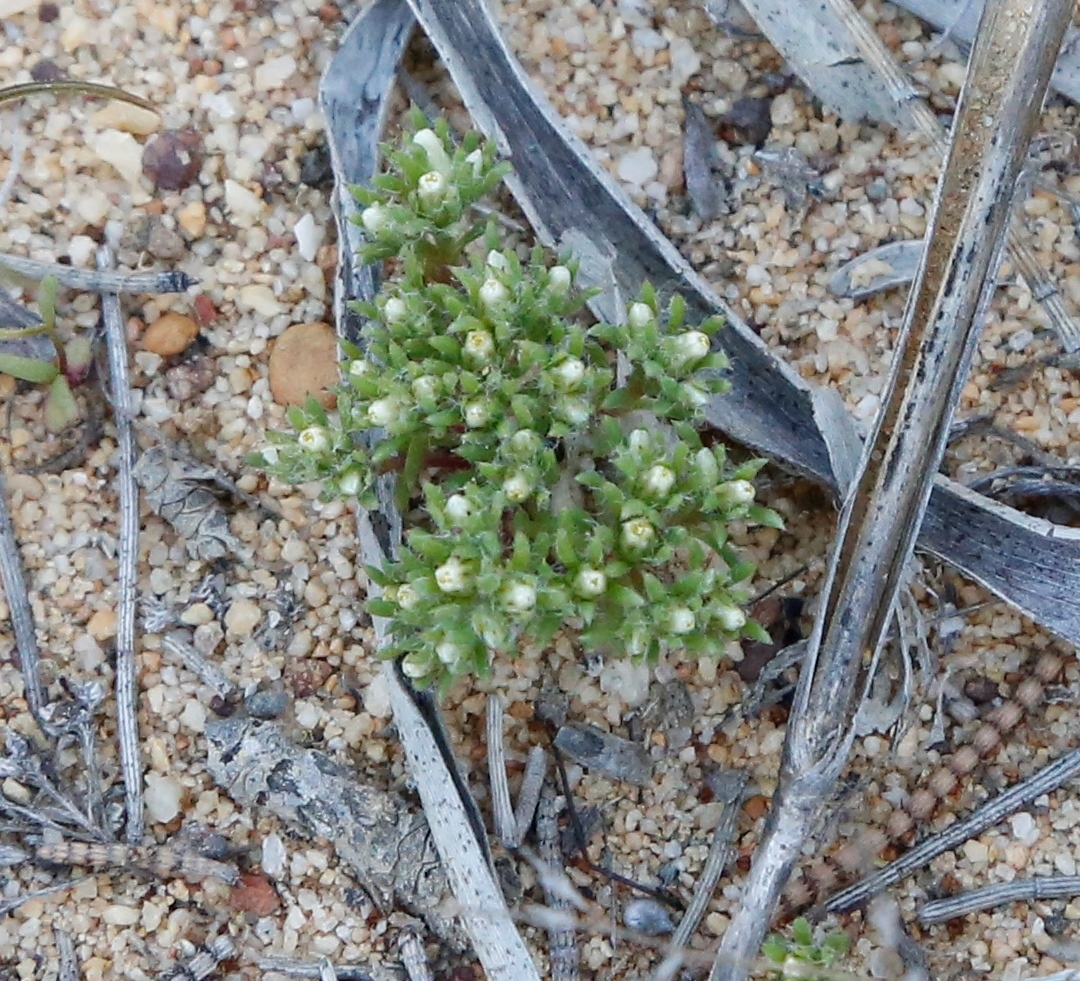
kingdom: Plantae
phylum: Tracheophyta
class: Magnoliopsida
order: Asterales
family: Asteraceae
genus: Hyalosperma
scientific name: Hyalosperma demissum
